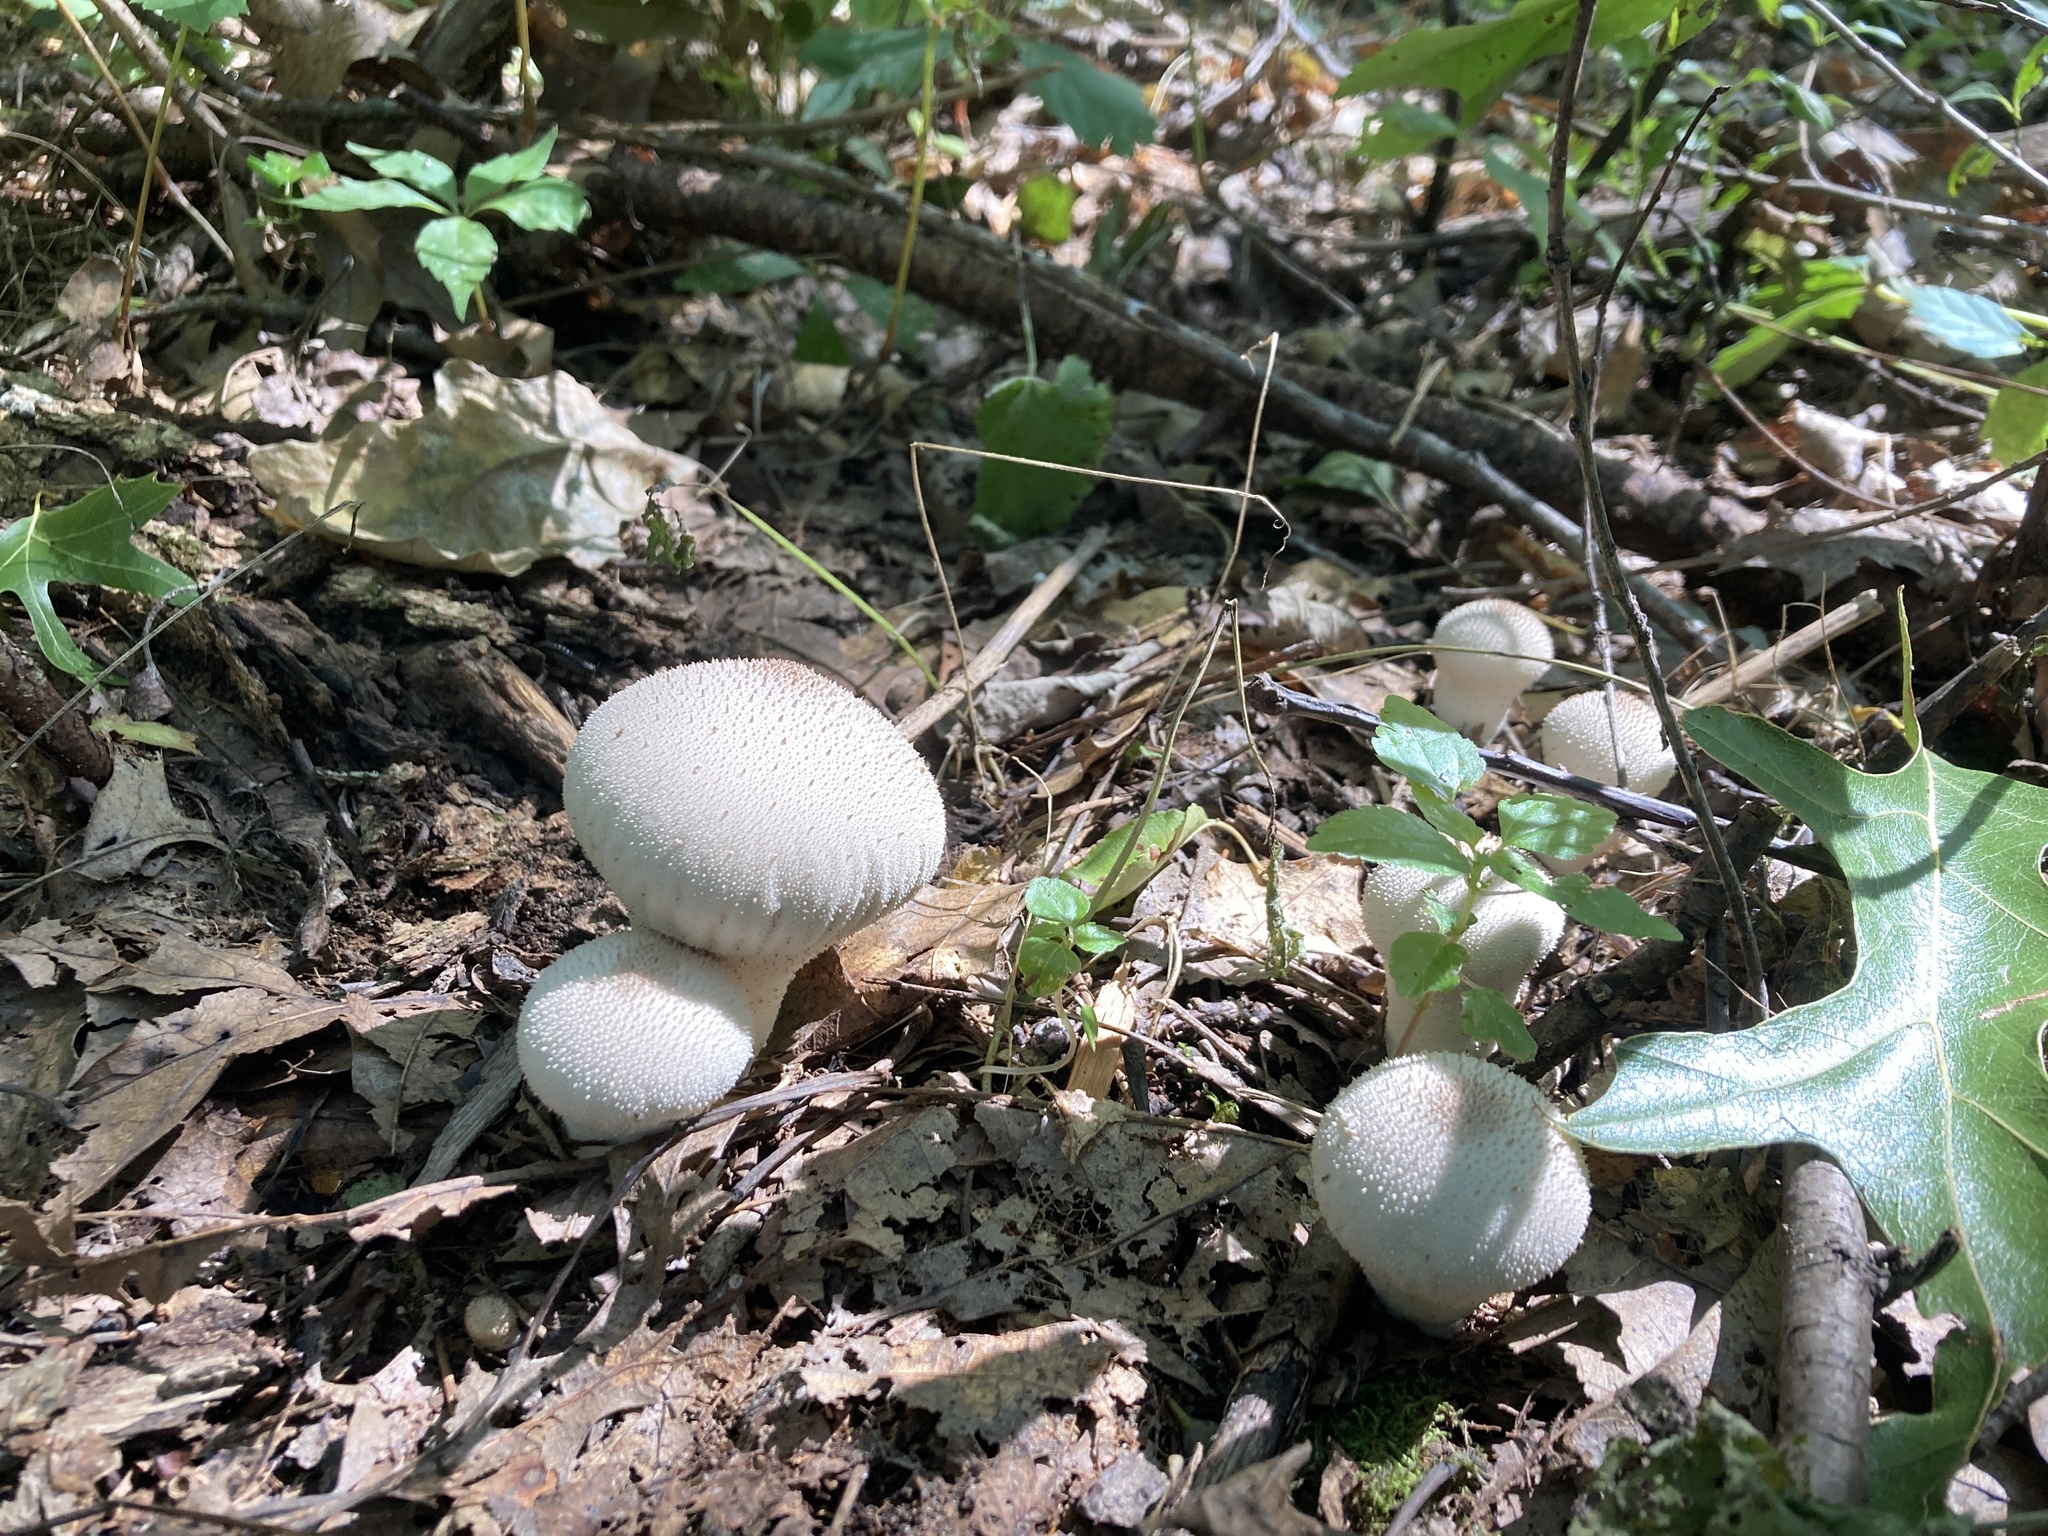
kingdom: Fungi
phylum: Basidiomycota
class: Agaricomycetes
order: Agaricales
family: Lycoperdaceae
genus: Lycoperdon
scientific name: Lycoperdon perlatum
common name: Common puffball
